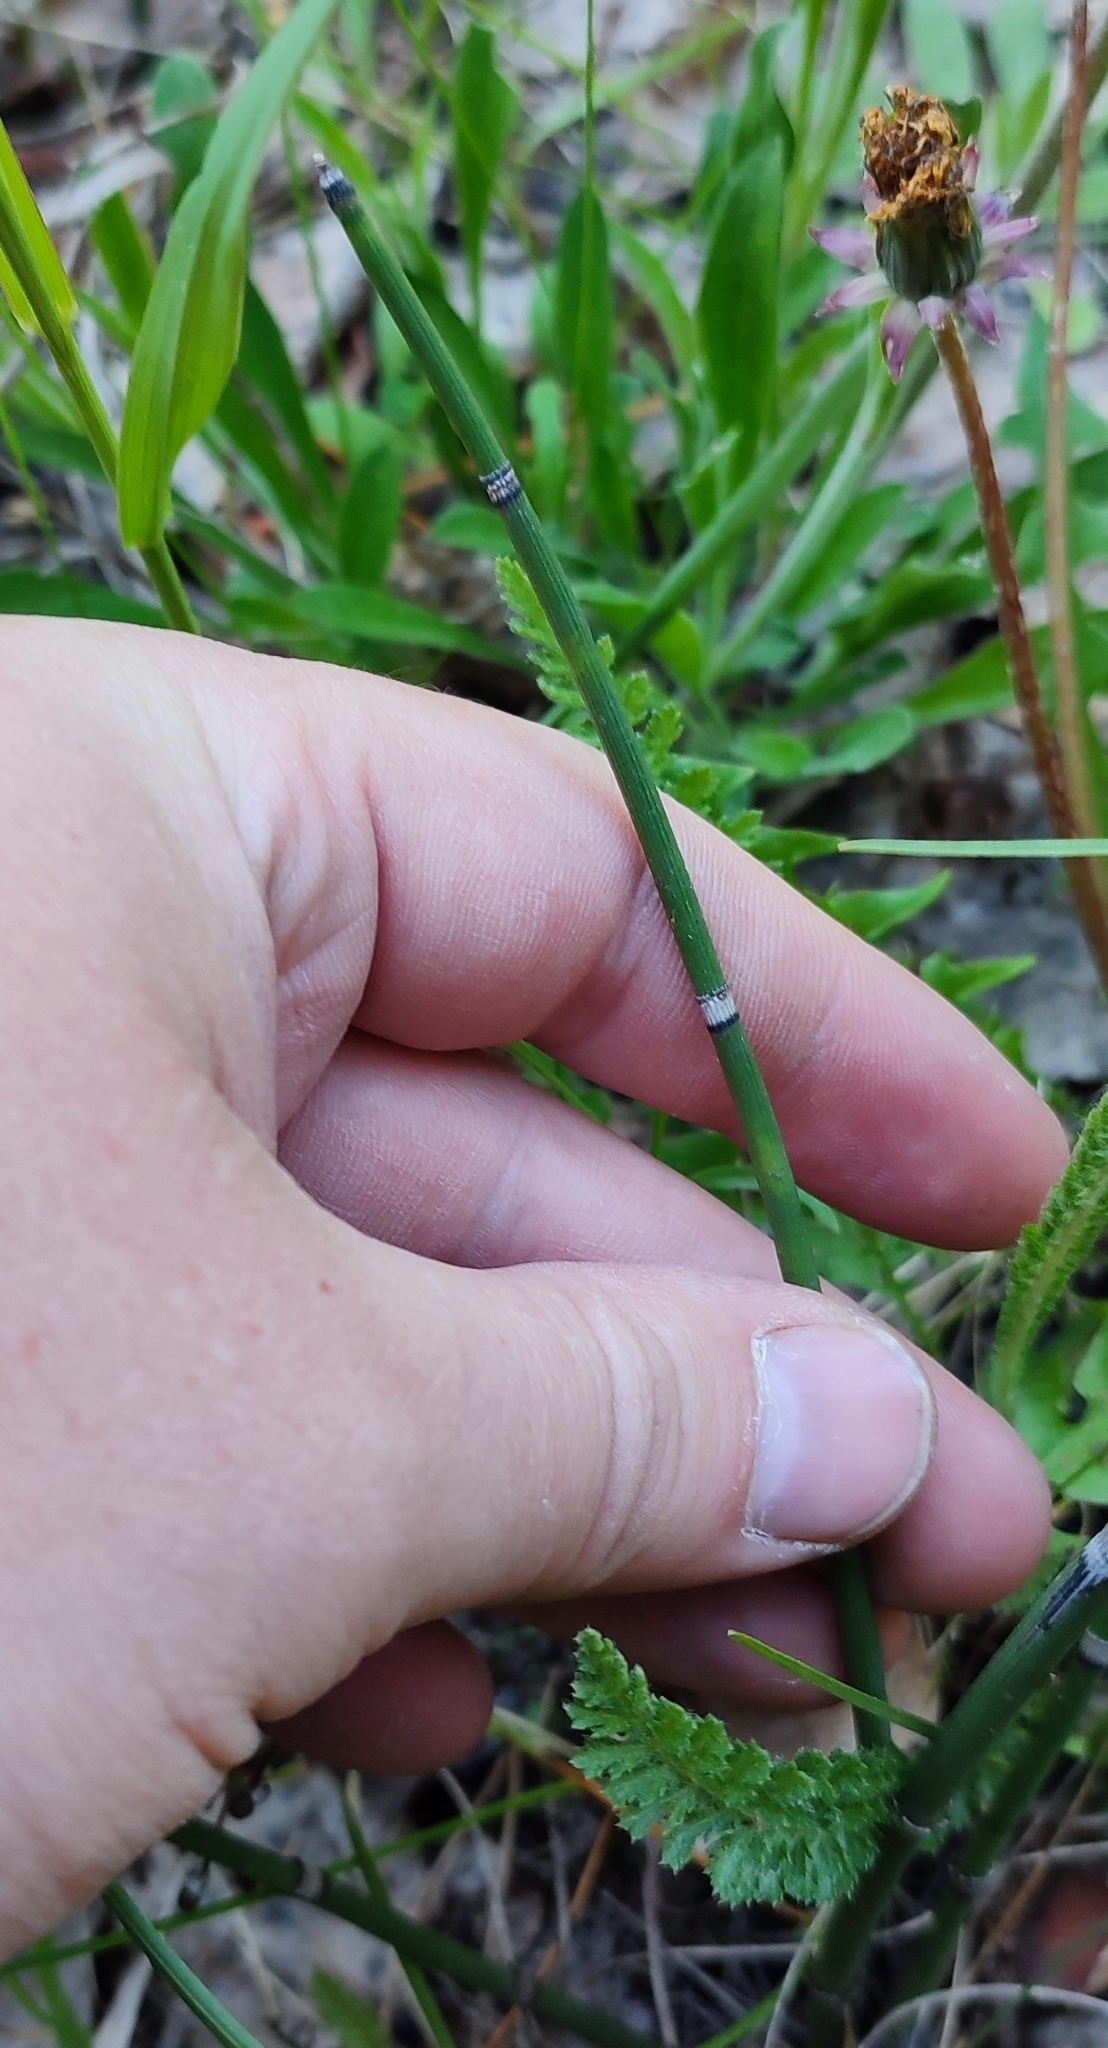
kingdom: Plantae
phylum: Tracheophyta
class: Polypodiopsida
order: Equisetales
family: Equisetaceae
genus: Equisetum
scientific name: Equisetum hyemale
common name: Rough horsetail
